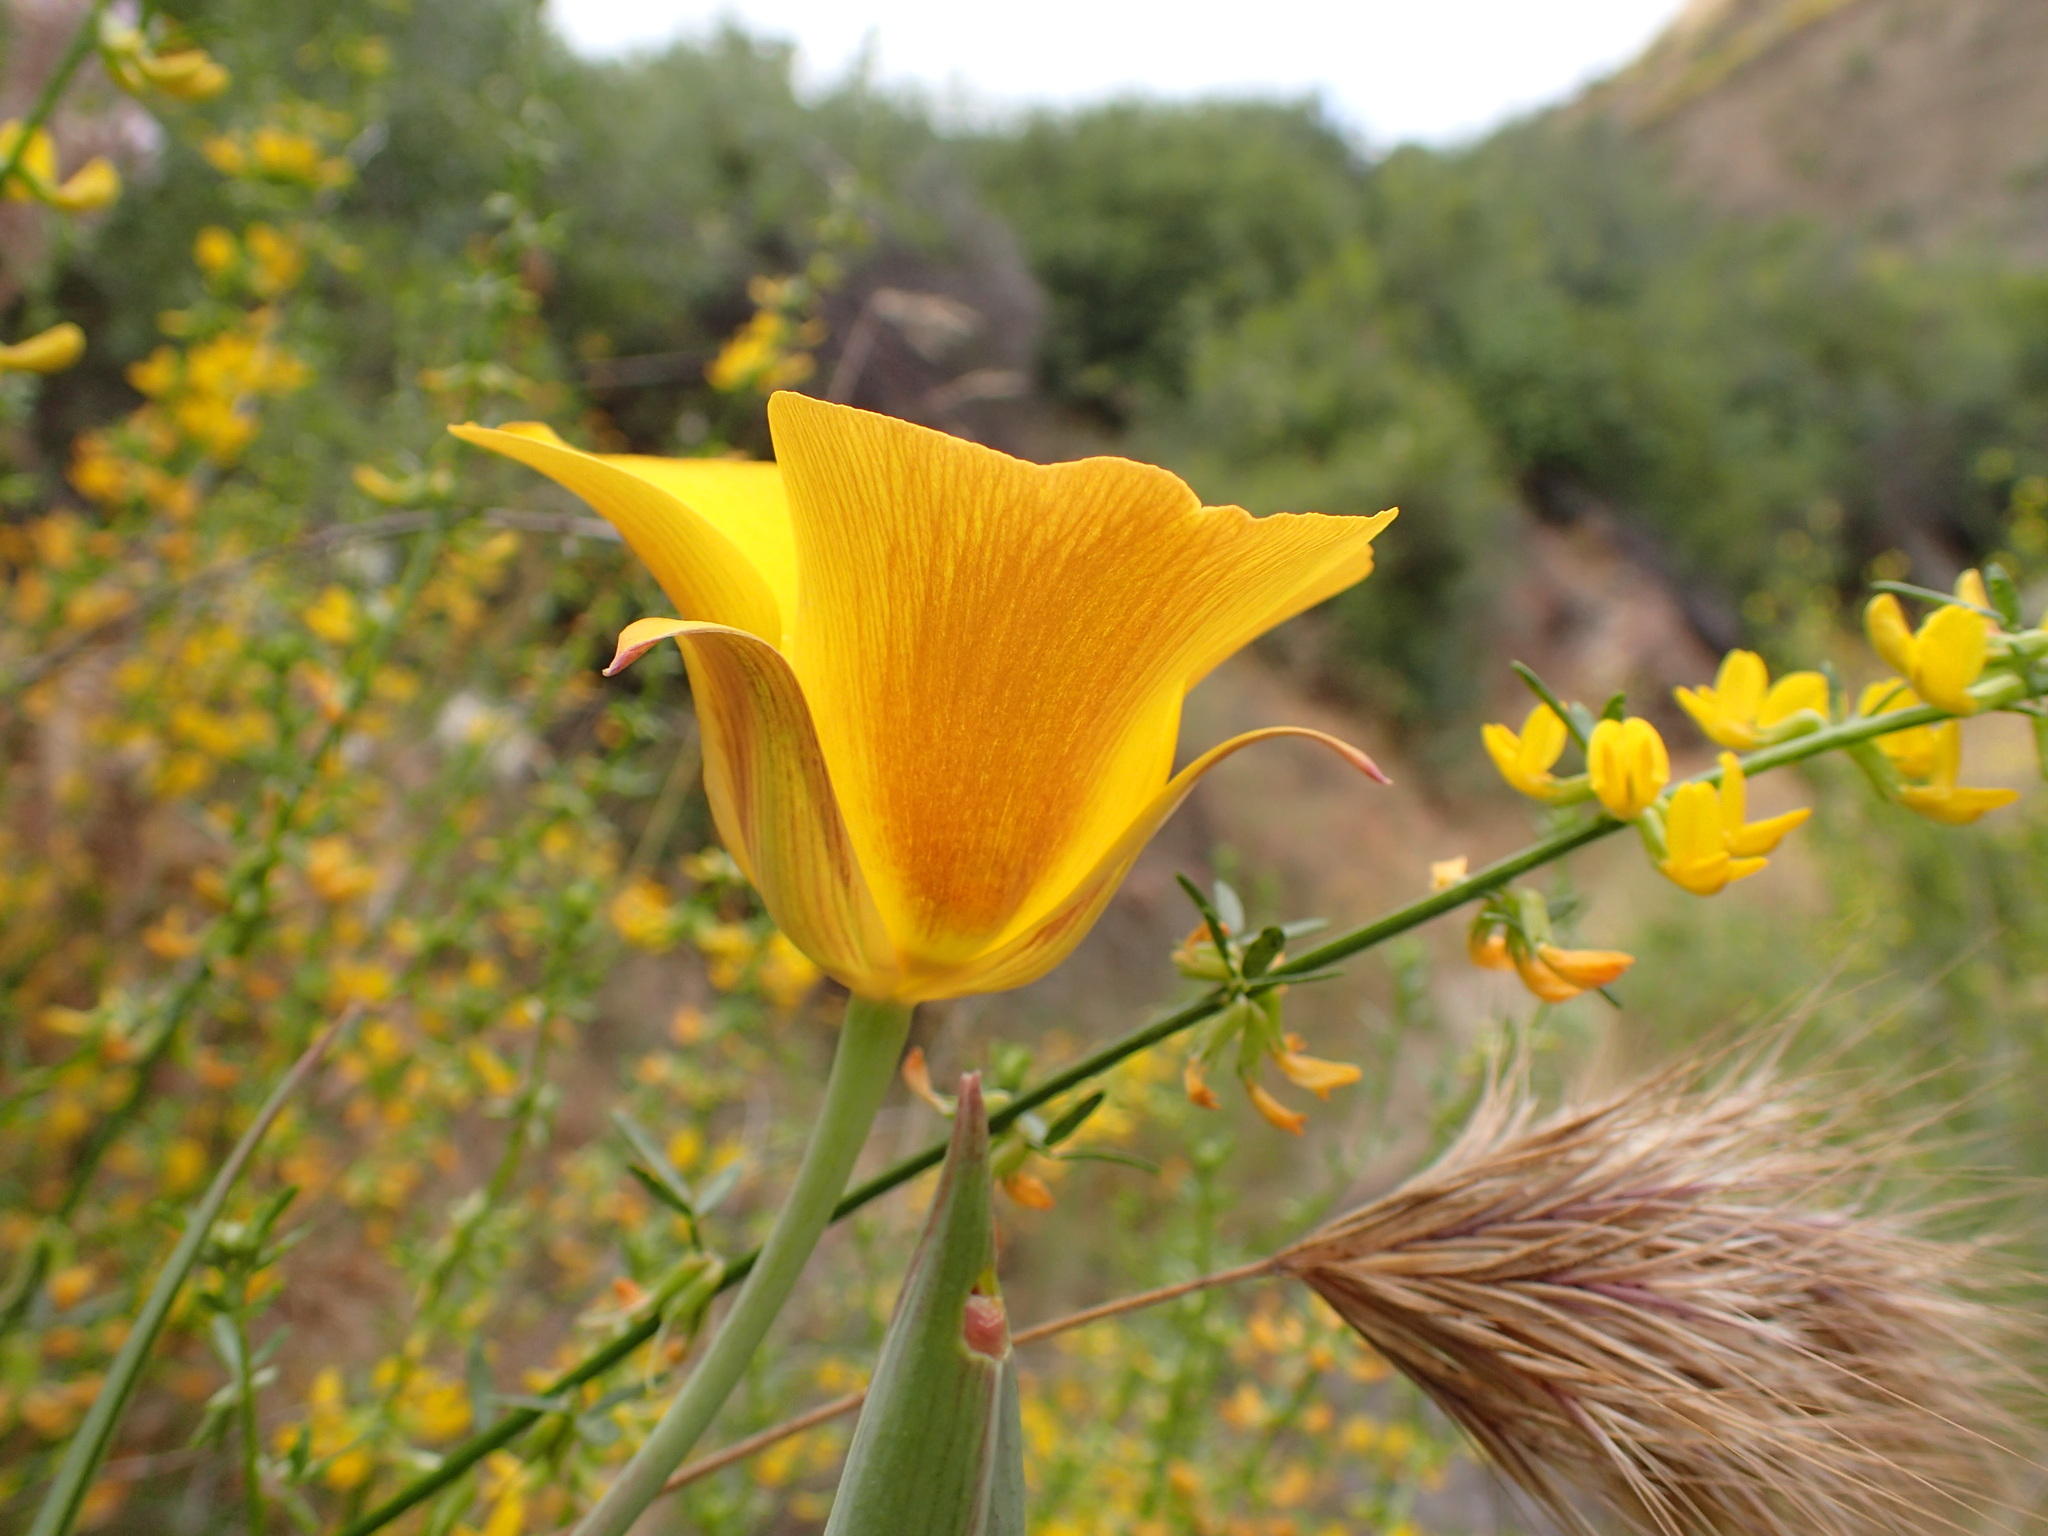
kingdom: Plantae
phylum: Tracheophyta
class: Liliopsida
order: Liliales
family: Liliaceae
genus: Calochortus
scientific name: Calochortus clavatus
